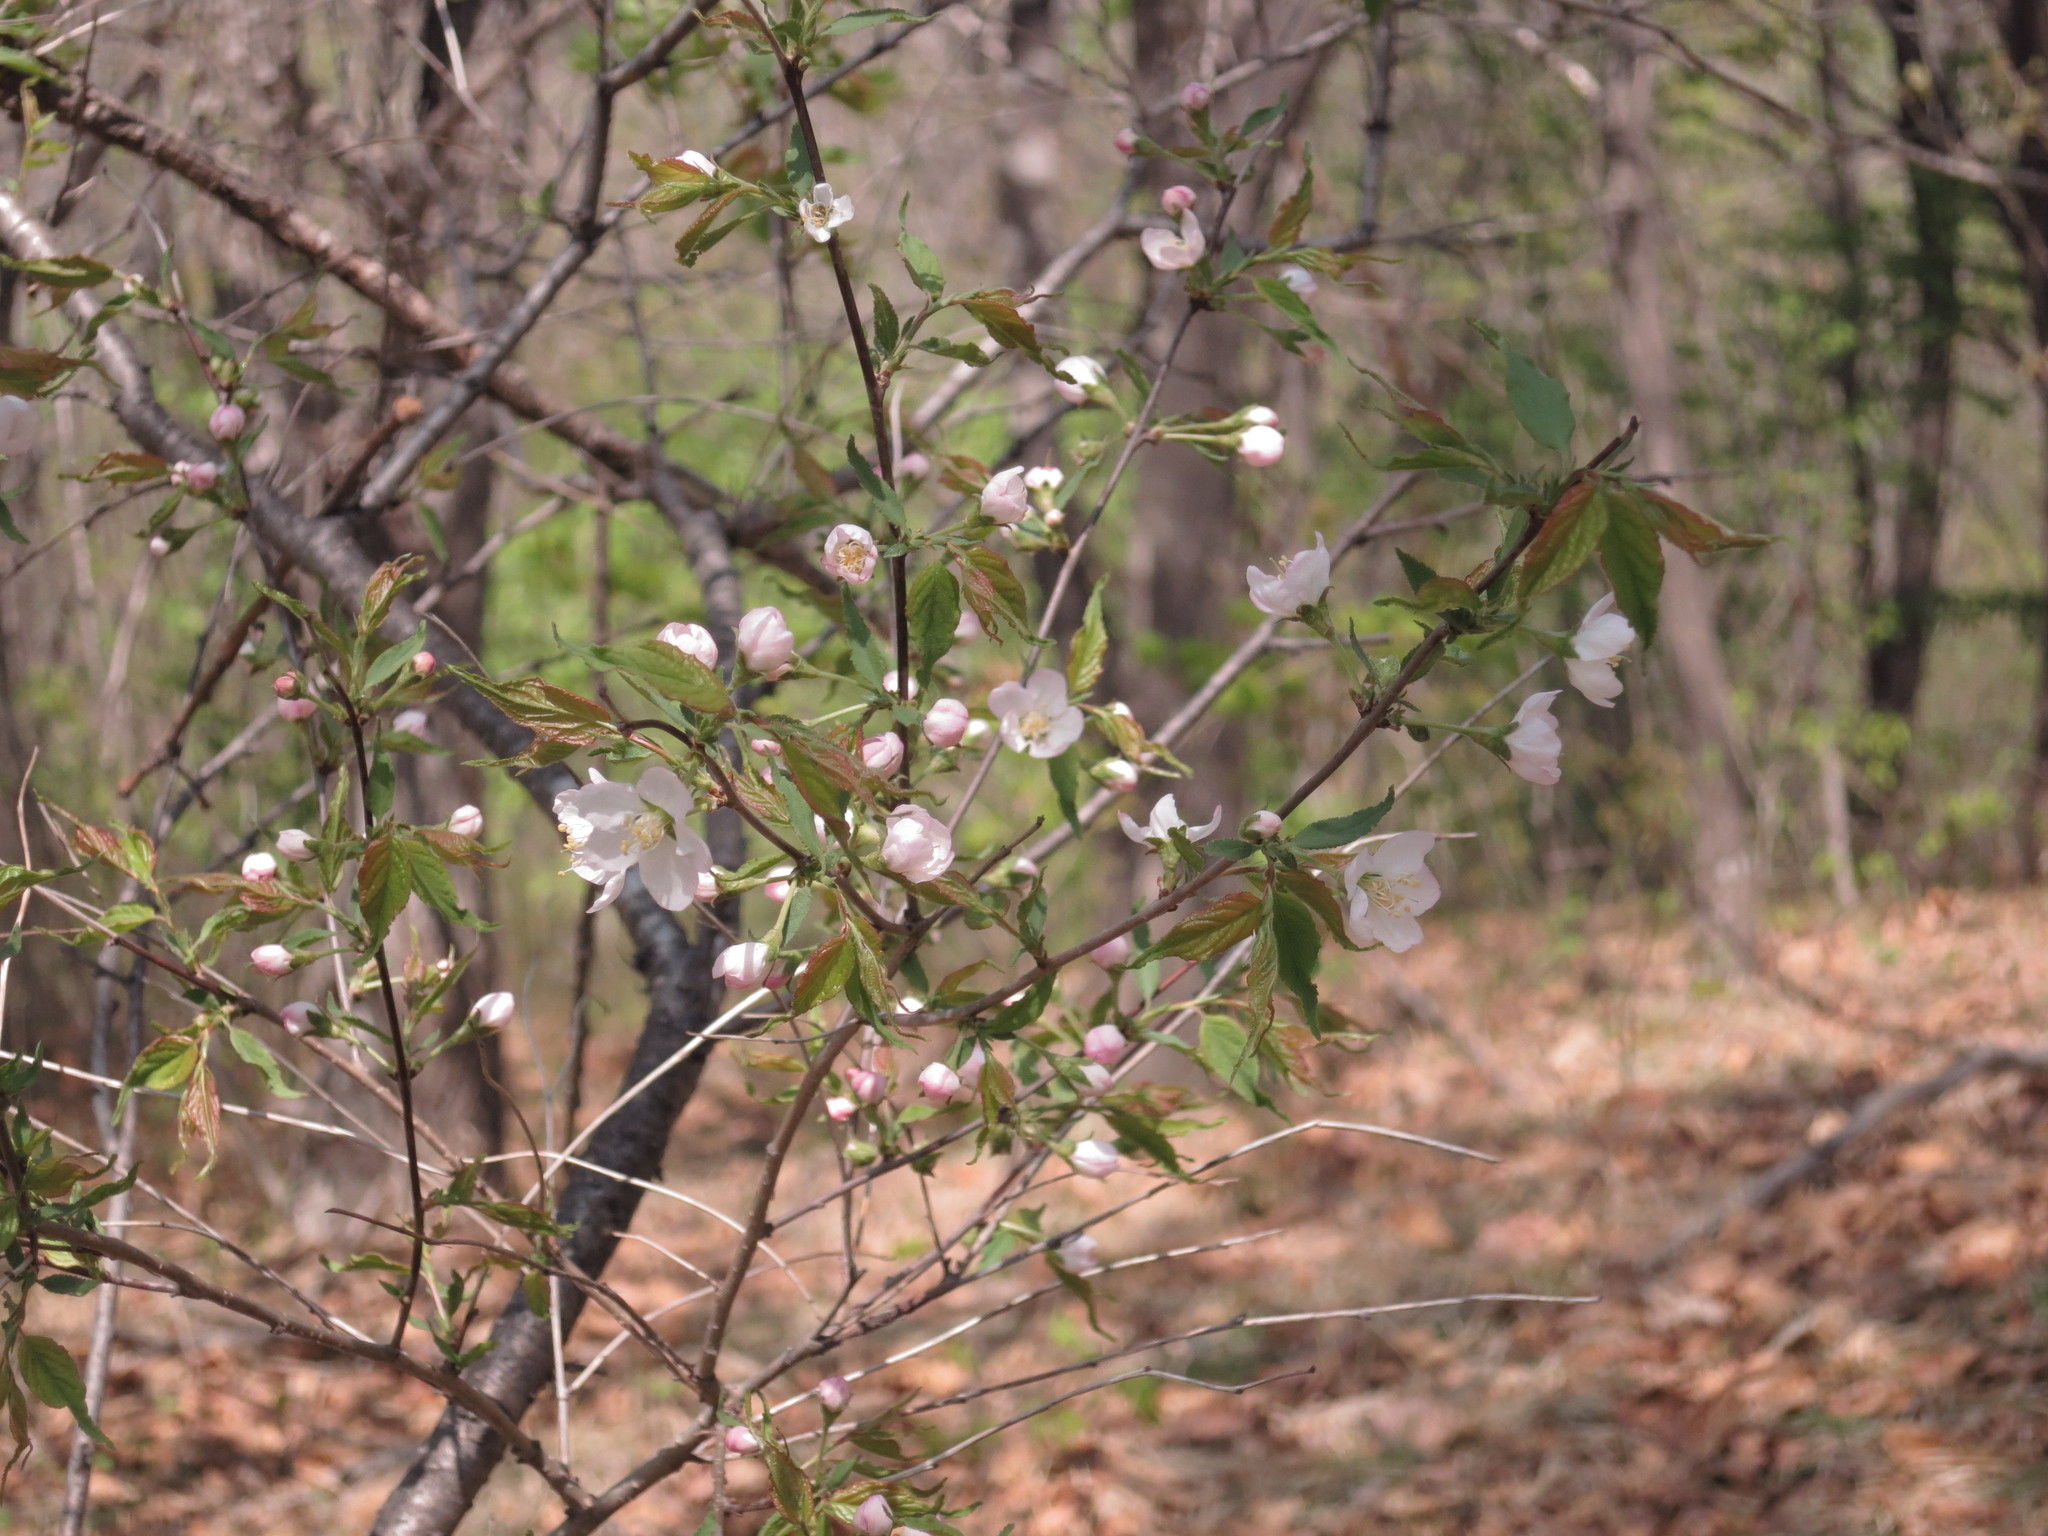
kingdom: Plantae
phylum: Tracheophyta
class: Magnoliopsida
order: Rosales
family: Rosaceae
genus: Prunus
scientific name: Prunus glandulosa
